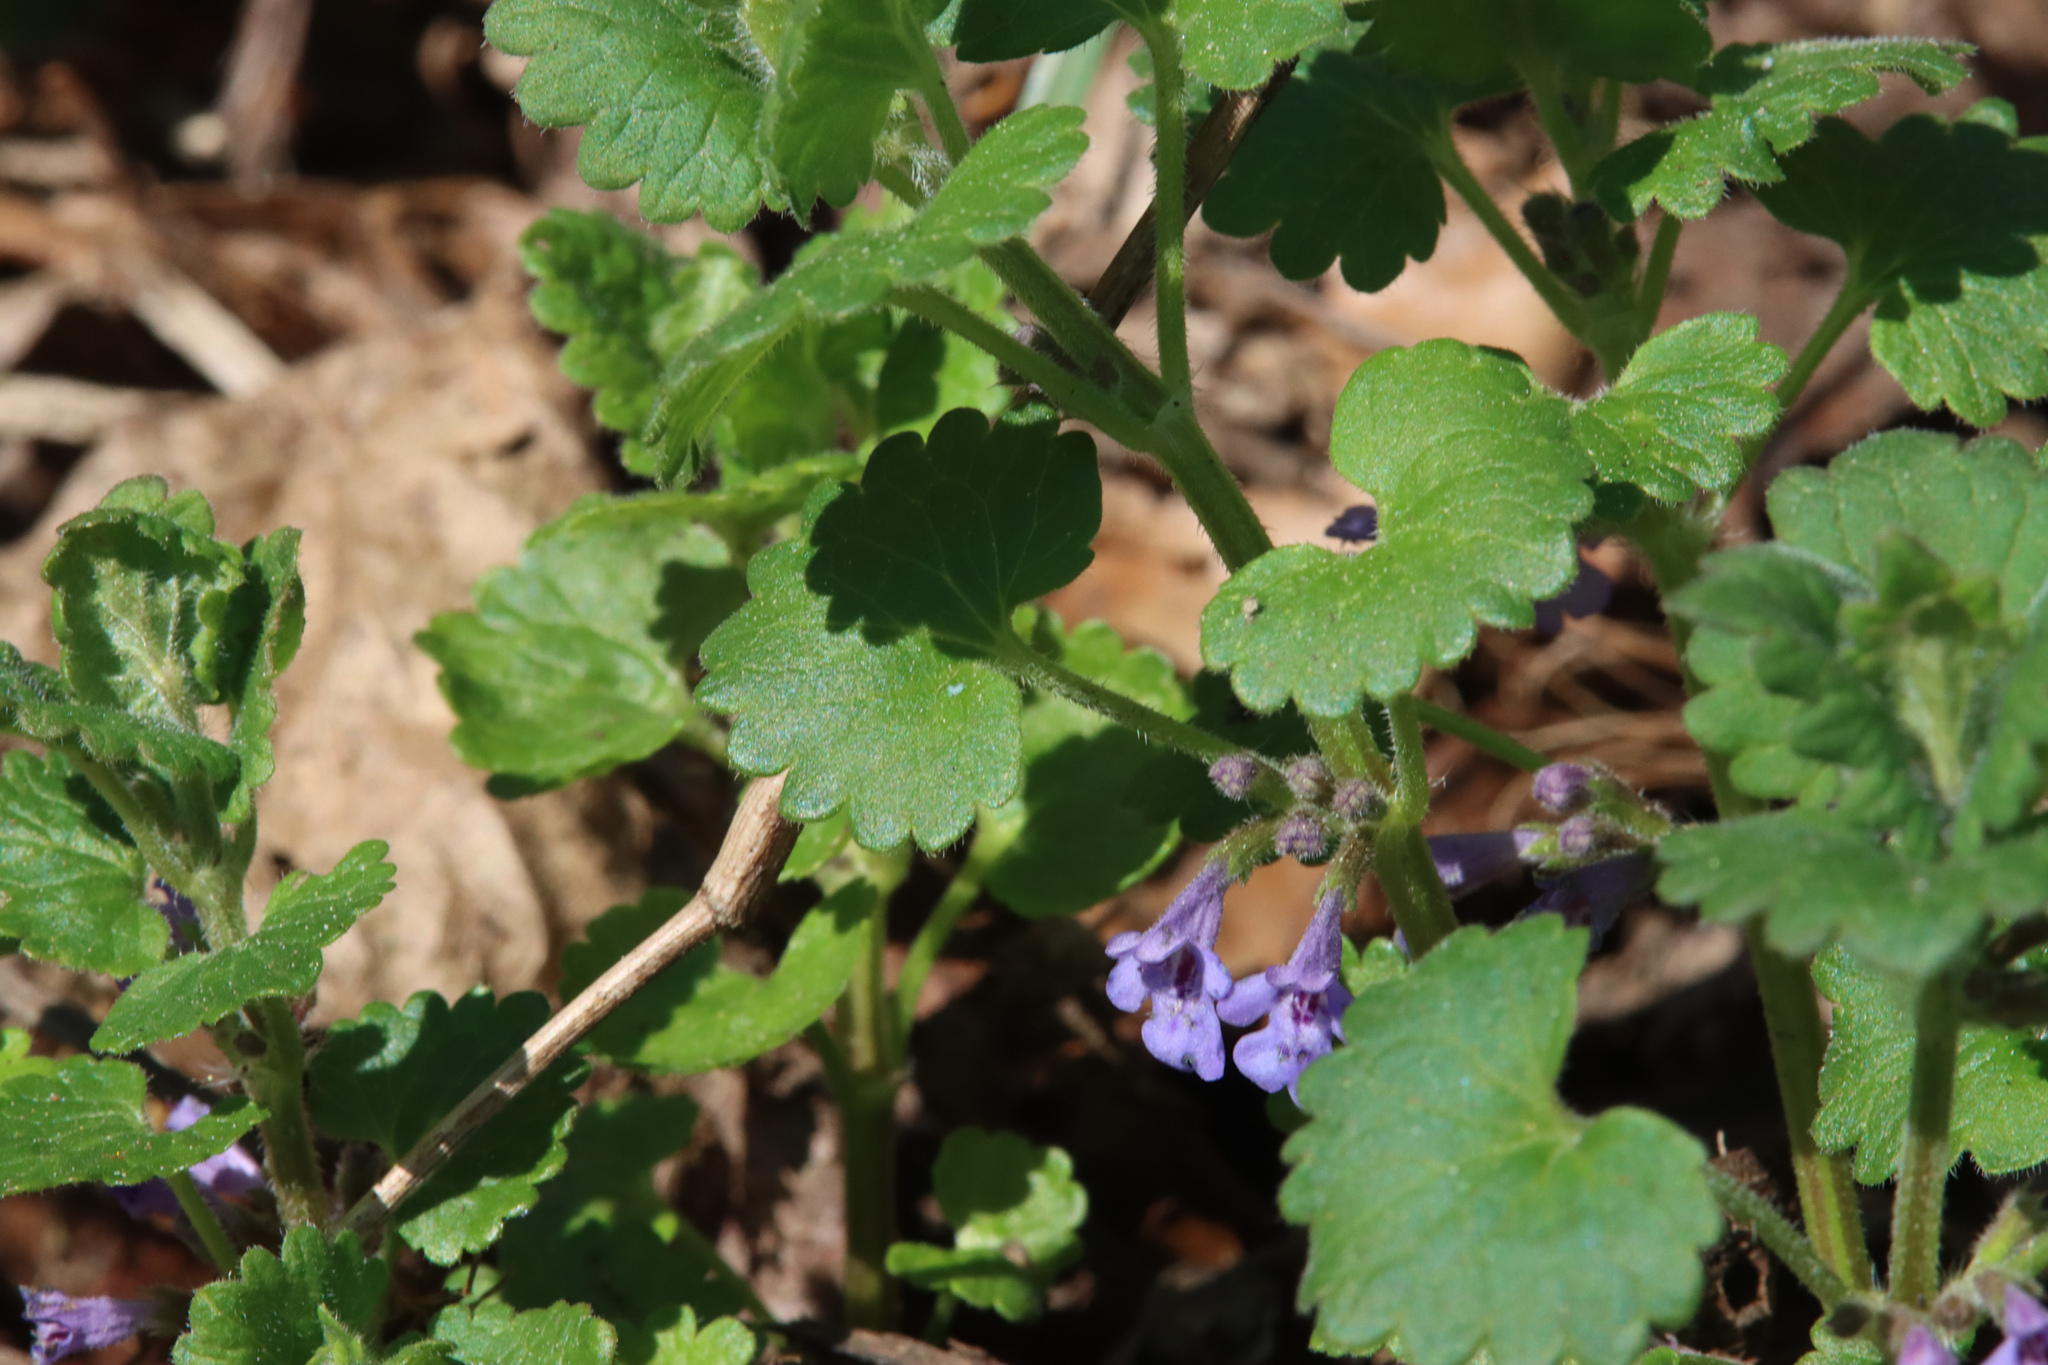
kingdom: Plantae
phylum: Tracheophyta
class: Magnoliopsida
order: Lamiales
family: Lamiaceae
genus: Glechoma
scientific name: Glechoma hederacea
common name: Ground ivy
